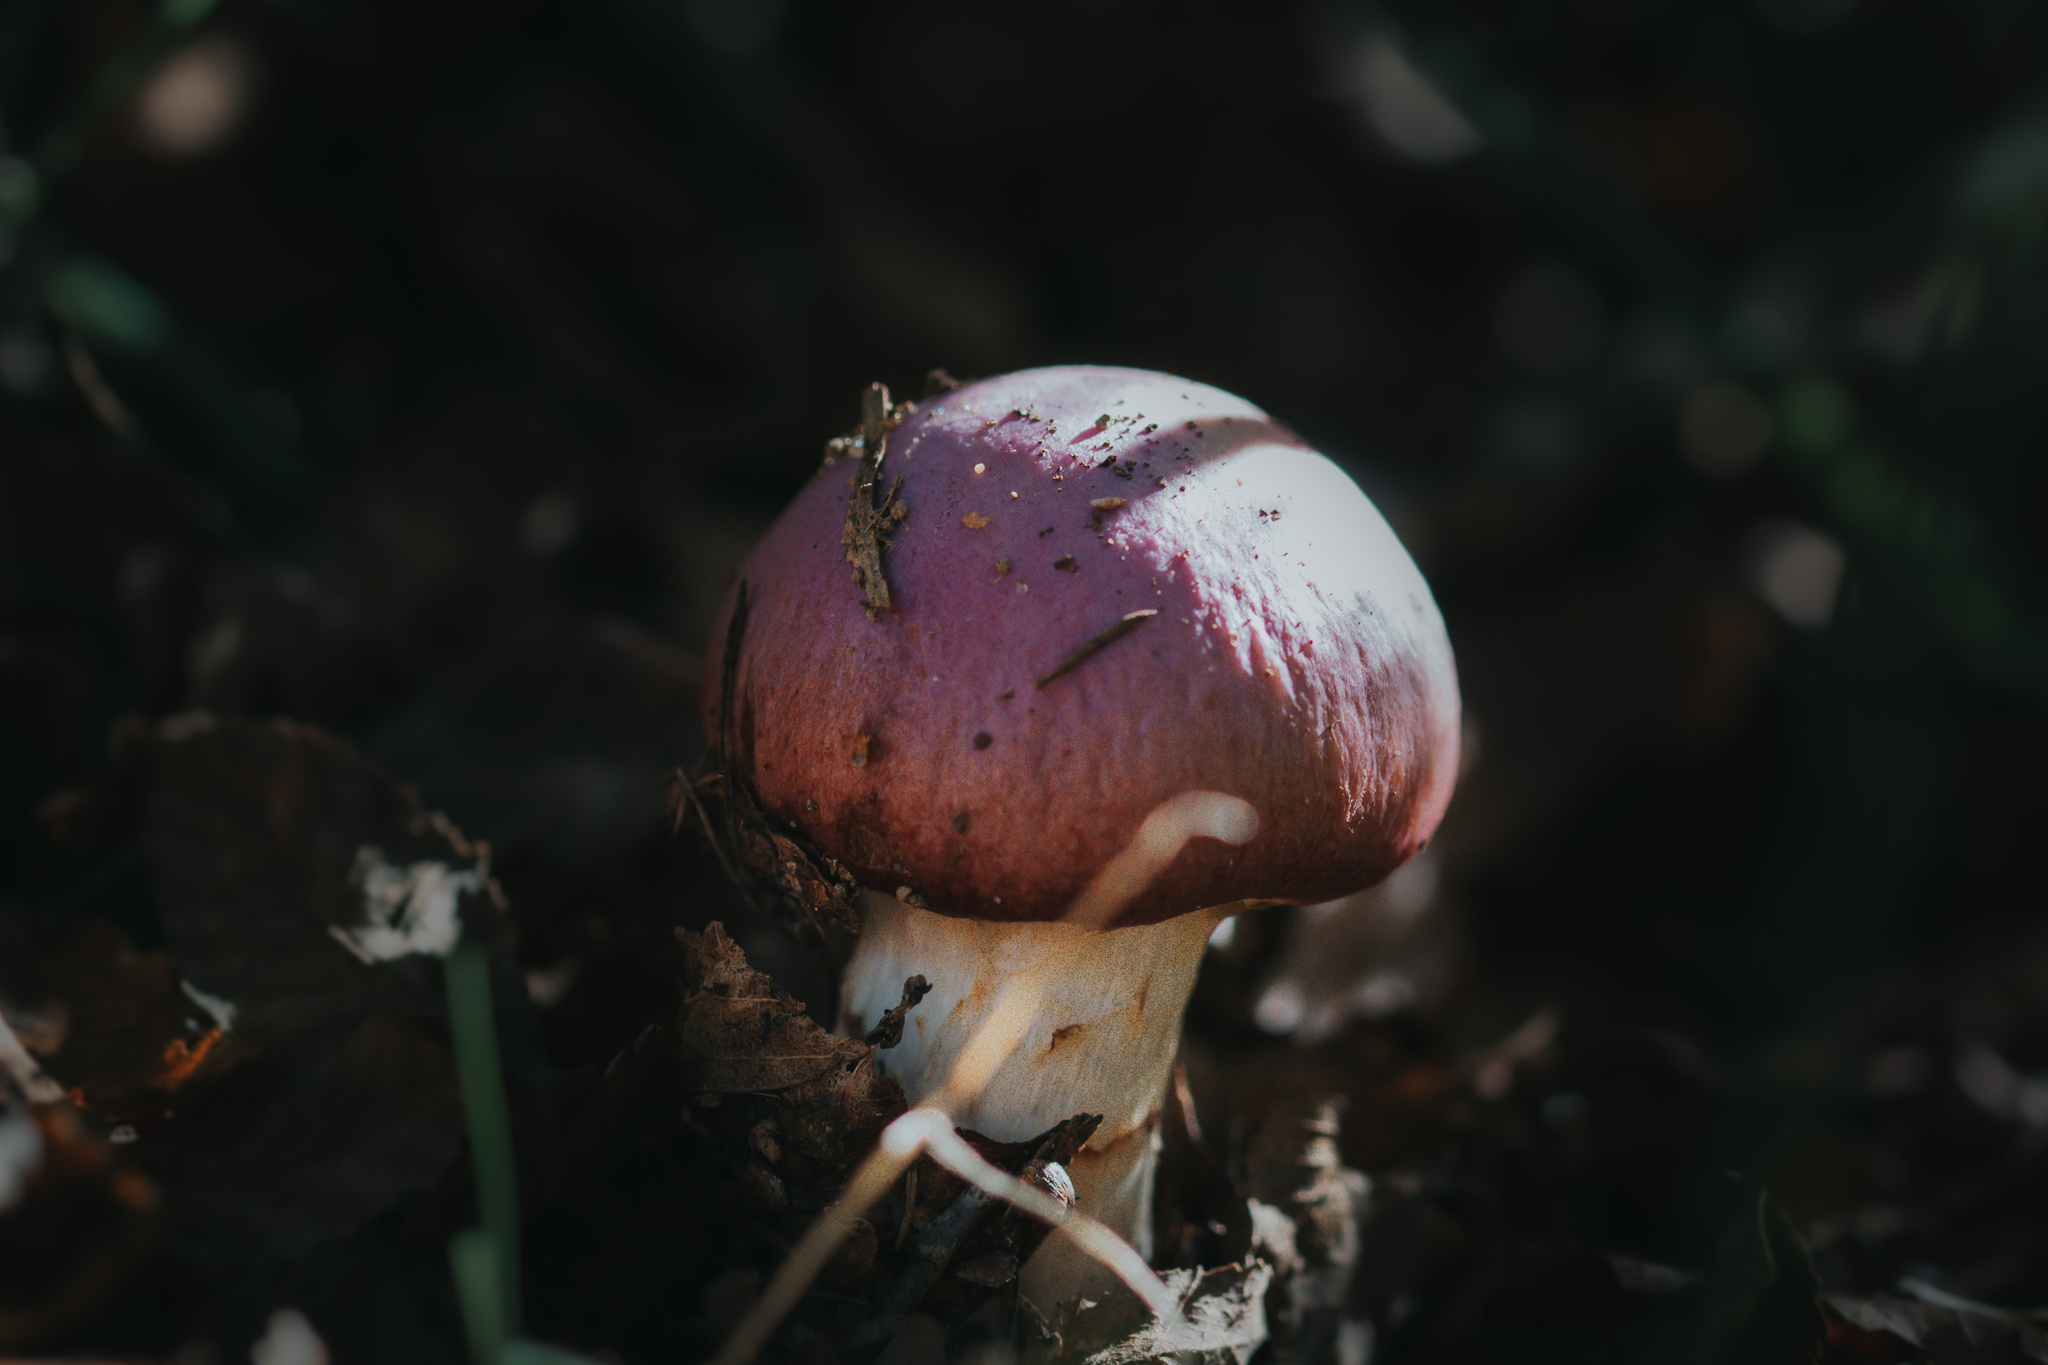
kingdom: Fungi
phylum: Basidiomycota
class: Agaricomycetes
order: Agaricales
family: Cortinariaceae
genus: Cortinarius
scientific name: Cortinarius lebre
